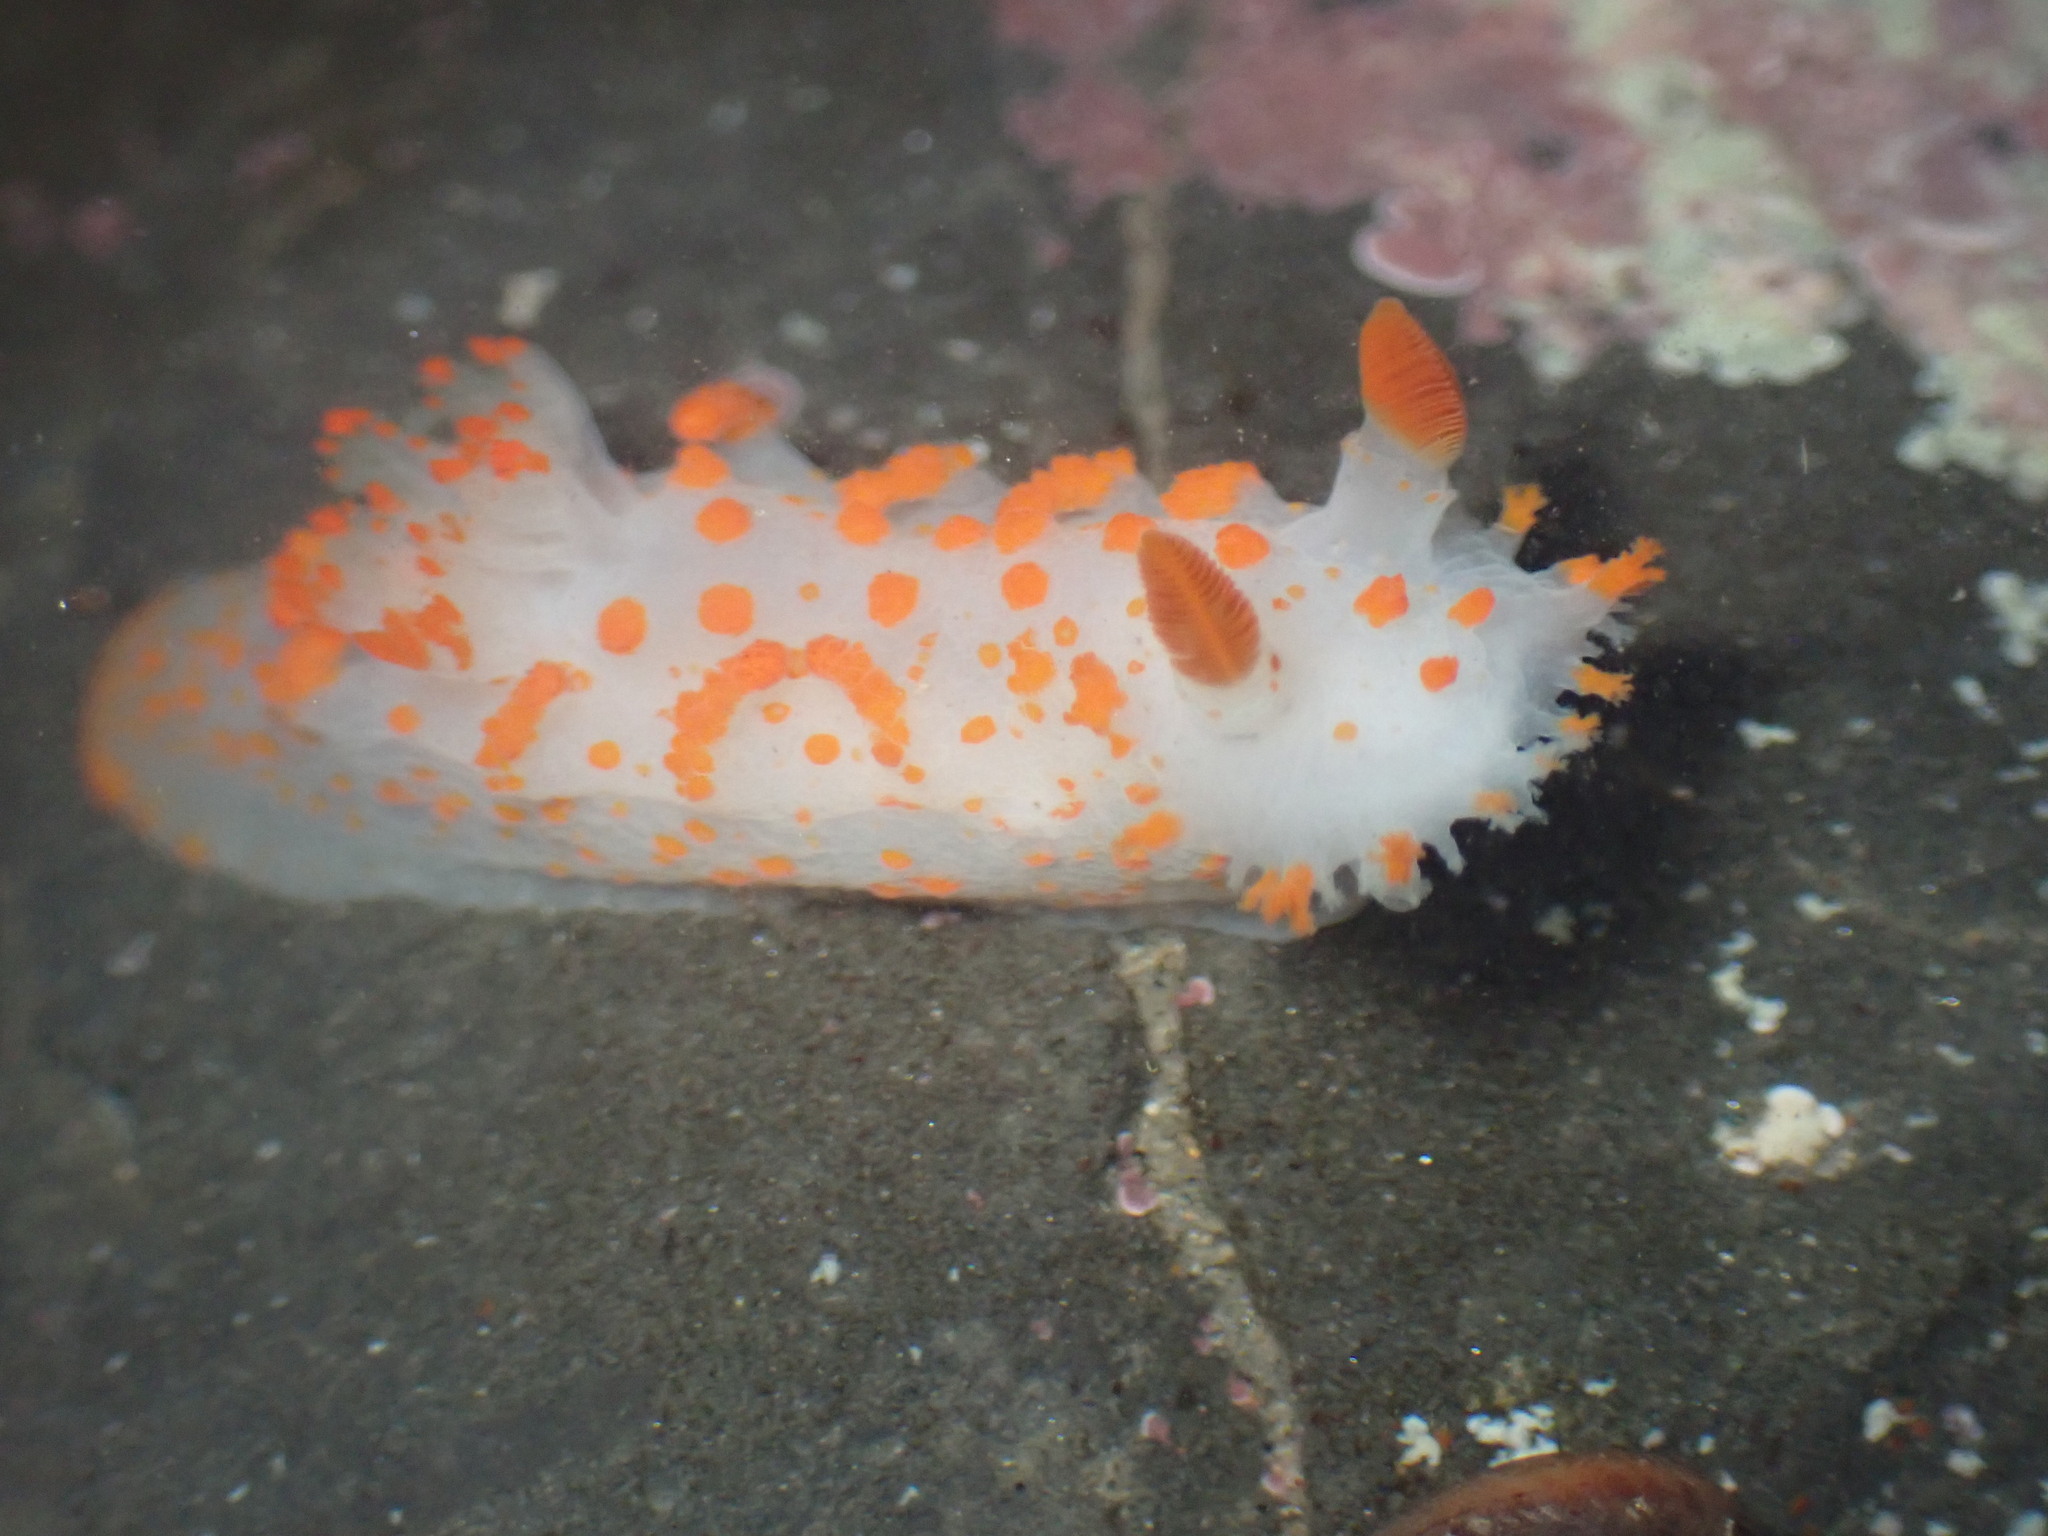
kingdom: Animalia
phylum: Mollusca
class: Gastropoda
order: Nudibranchia
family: Polyceridae
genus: Triopha
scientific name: Triopha catalinae
